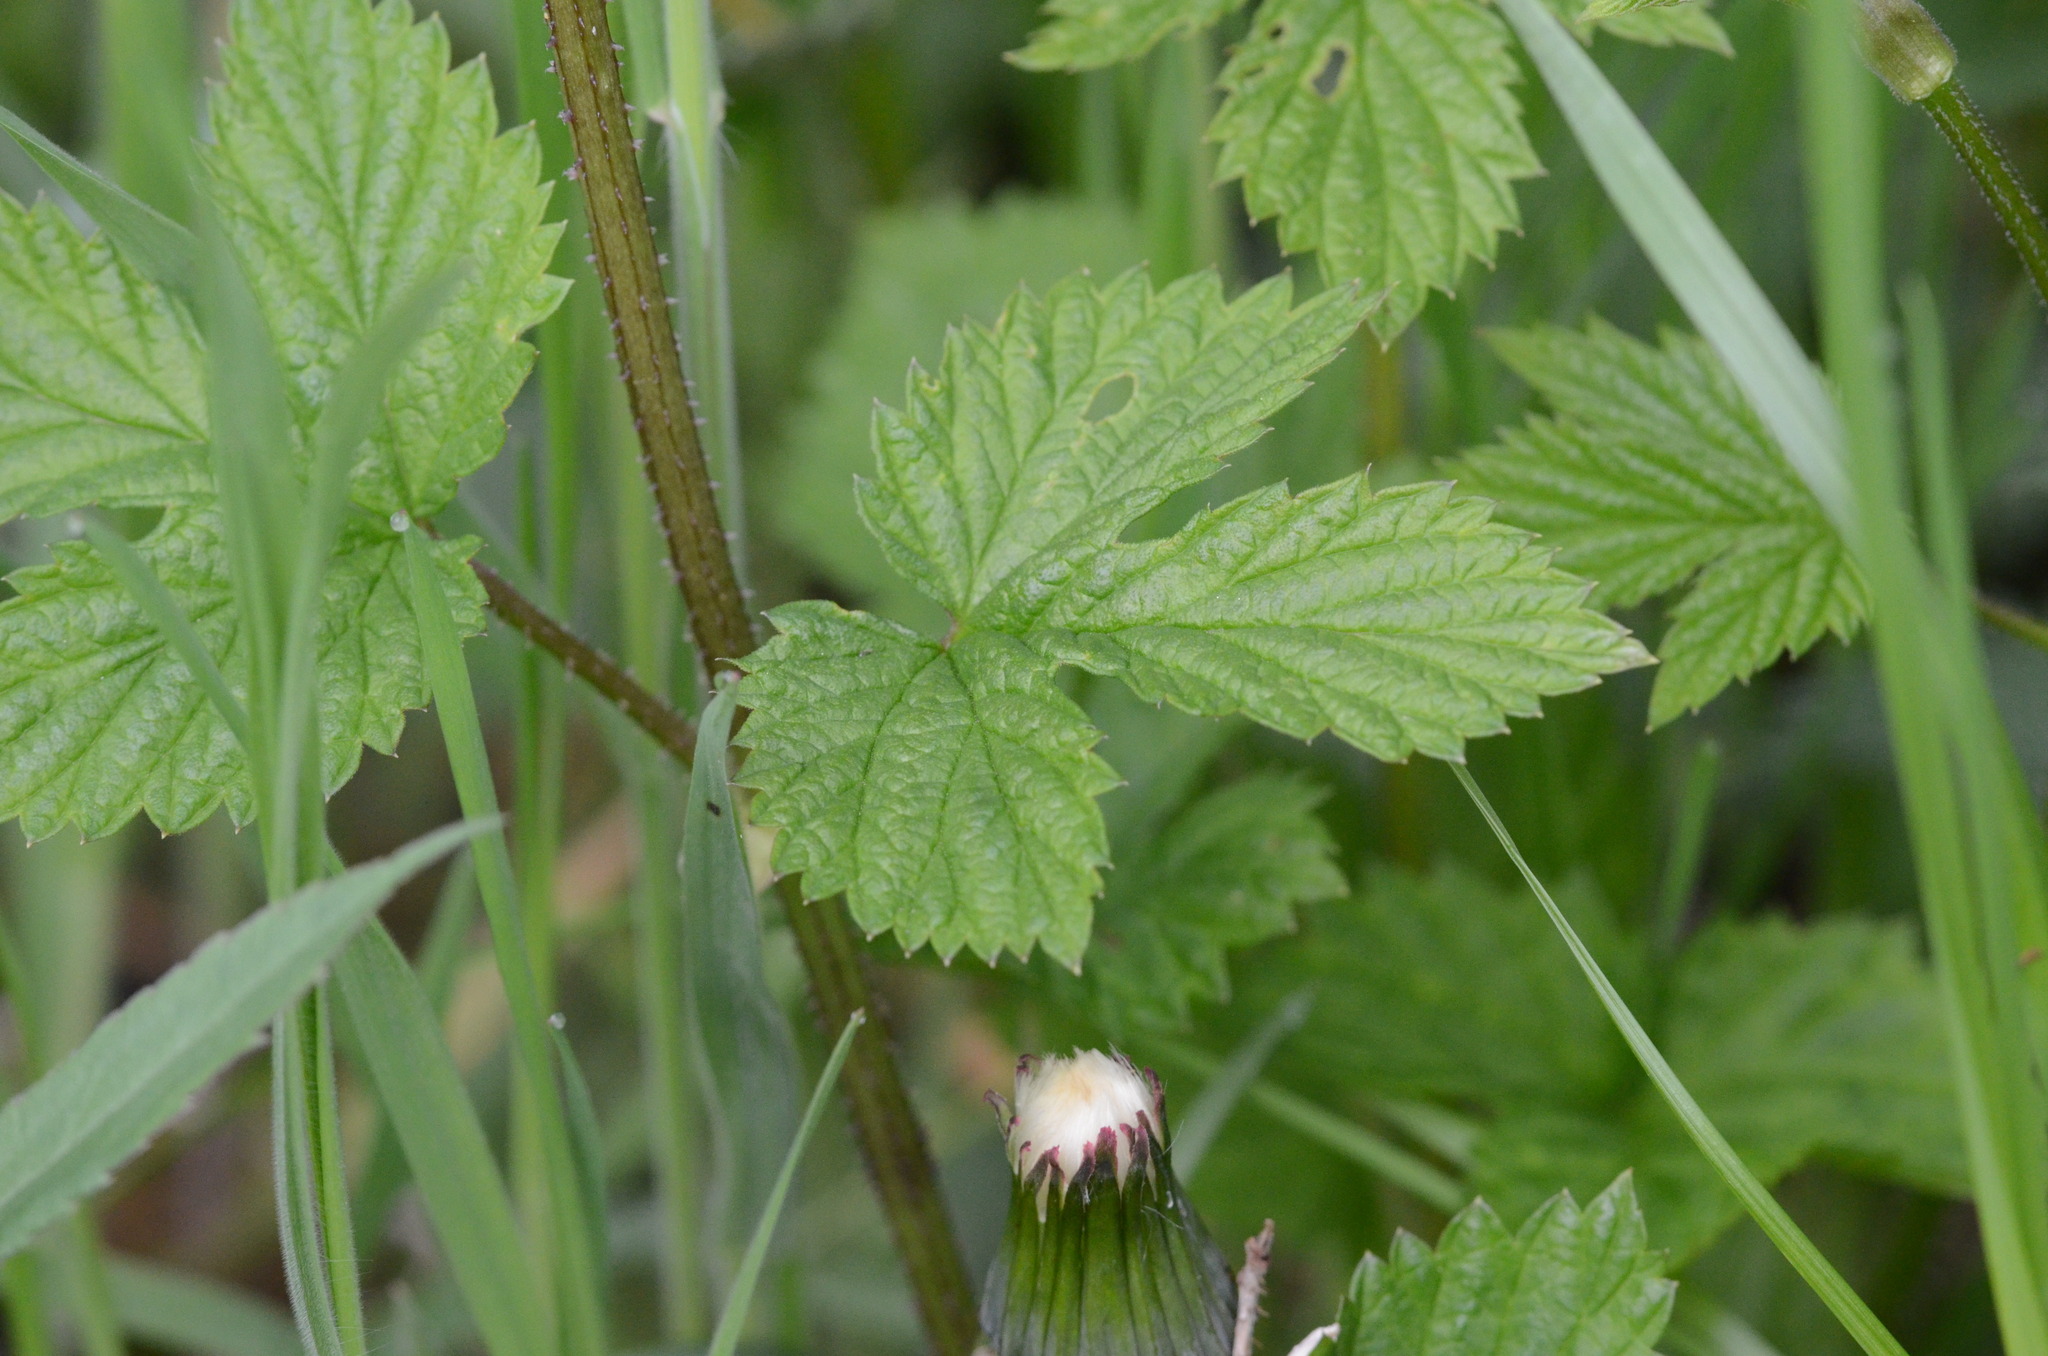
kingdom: Plantae
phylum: Tracheophyta
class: Magnoliopsida
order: Rosales
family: Cannabaceae
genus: Humulus
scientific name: Humulus lupulus
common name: Hop
